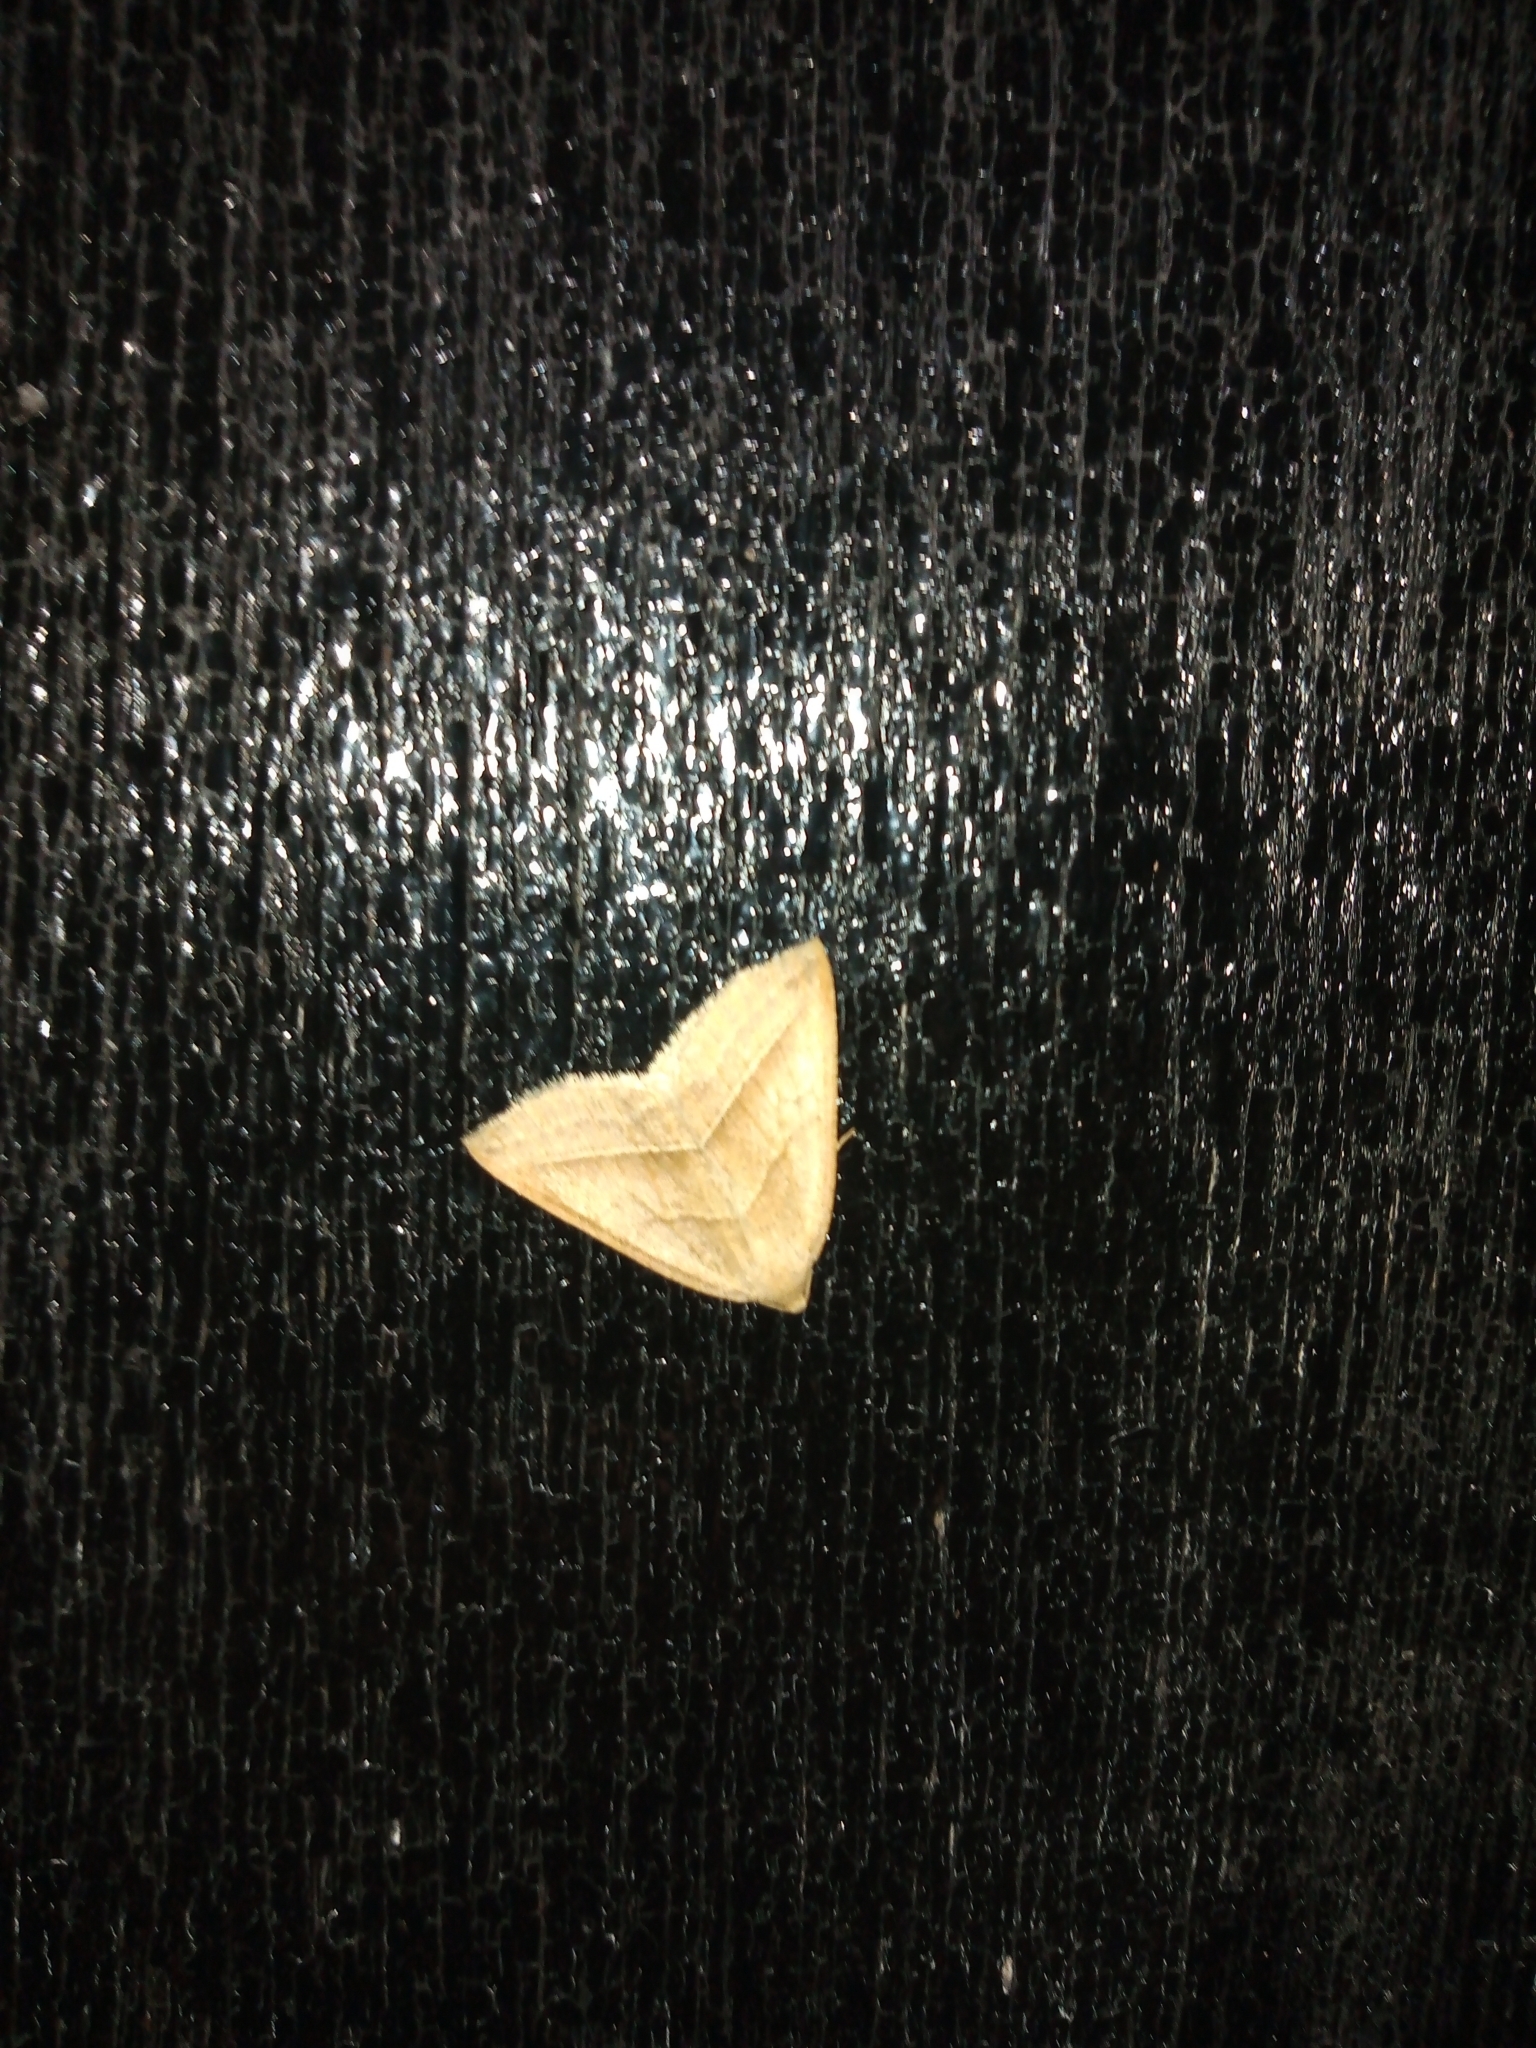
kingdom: Animalia
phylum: Arthropoda
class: Insecta
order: Lepidoptera
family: Pterophoridae
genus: Pterophorus
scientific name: Pterophorus Petrophora chlorosata
